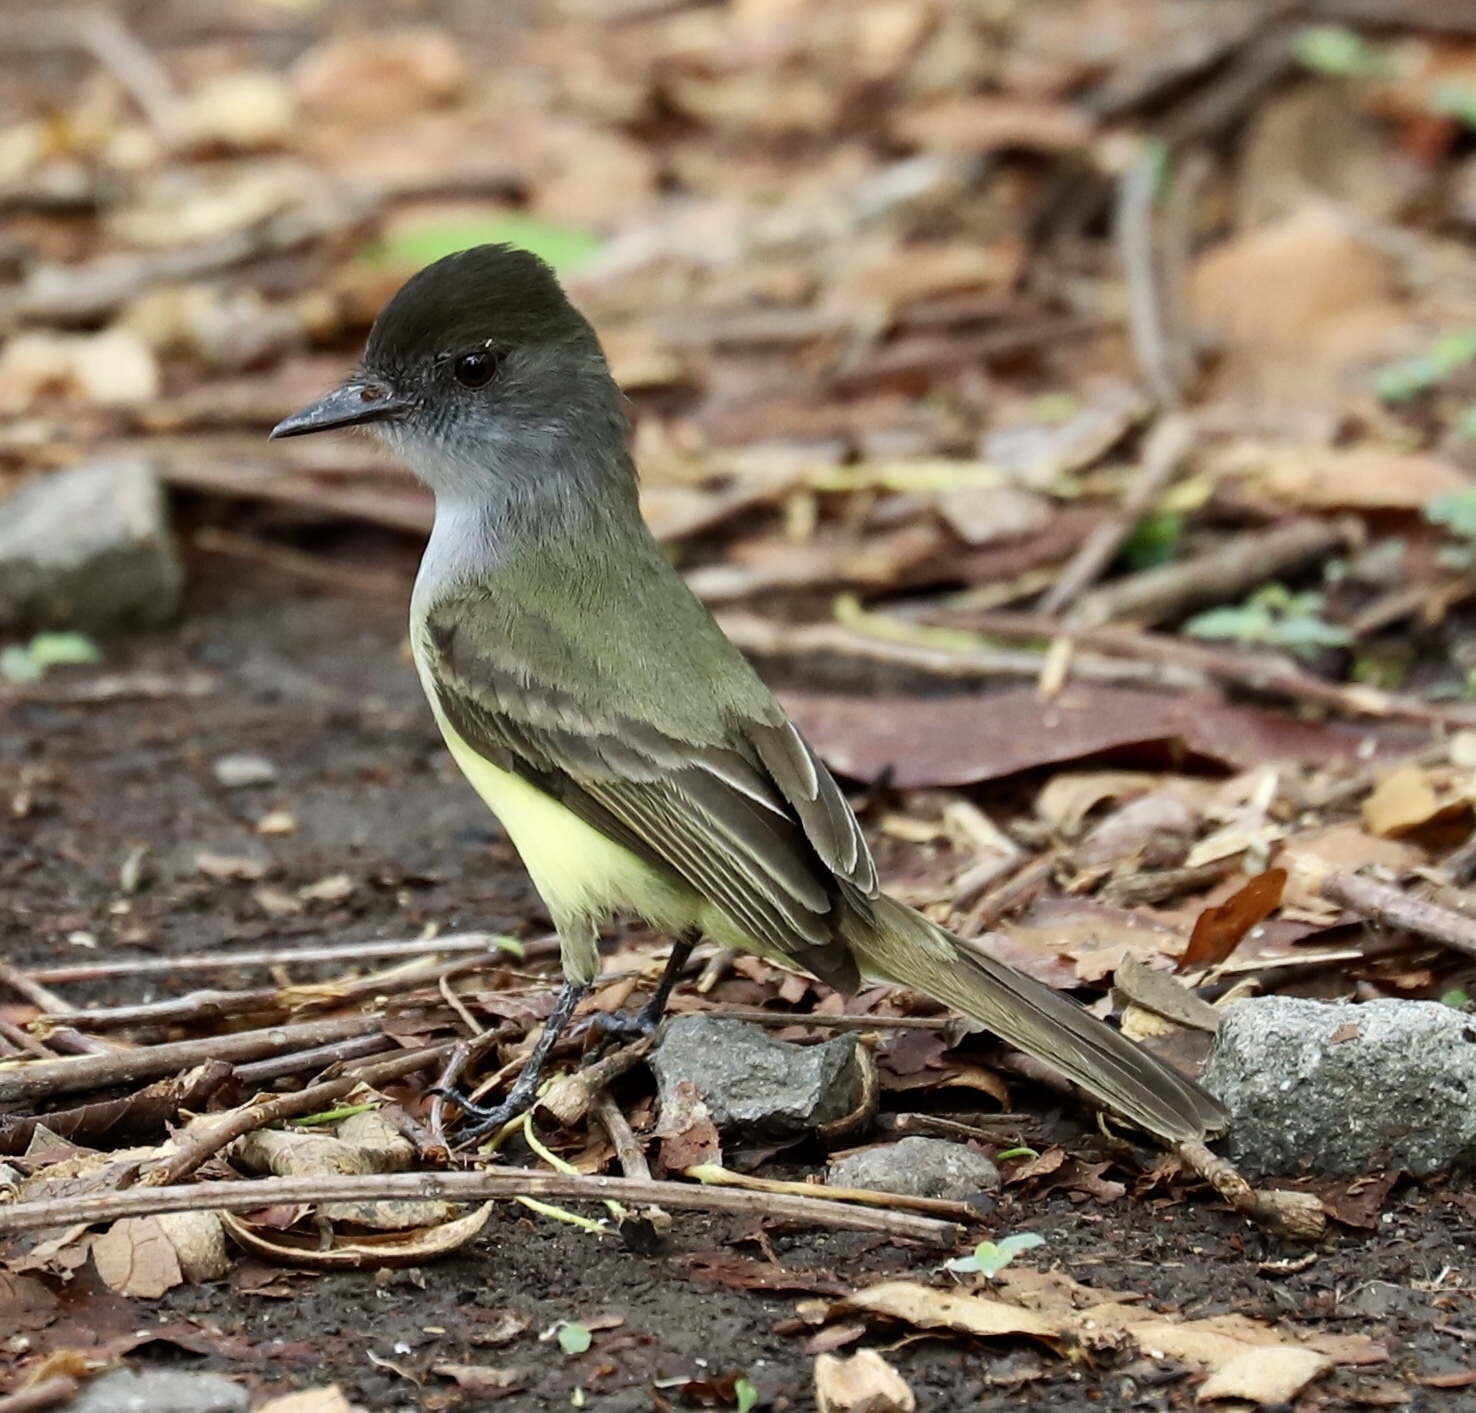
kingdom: Animalia
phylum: Chordata
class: Aves
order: Passeriformes
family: Tyrannidae
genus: Myiarchus
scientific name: Myiarchus tuberculifer
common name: Dusky-capped flycatcher
